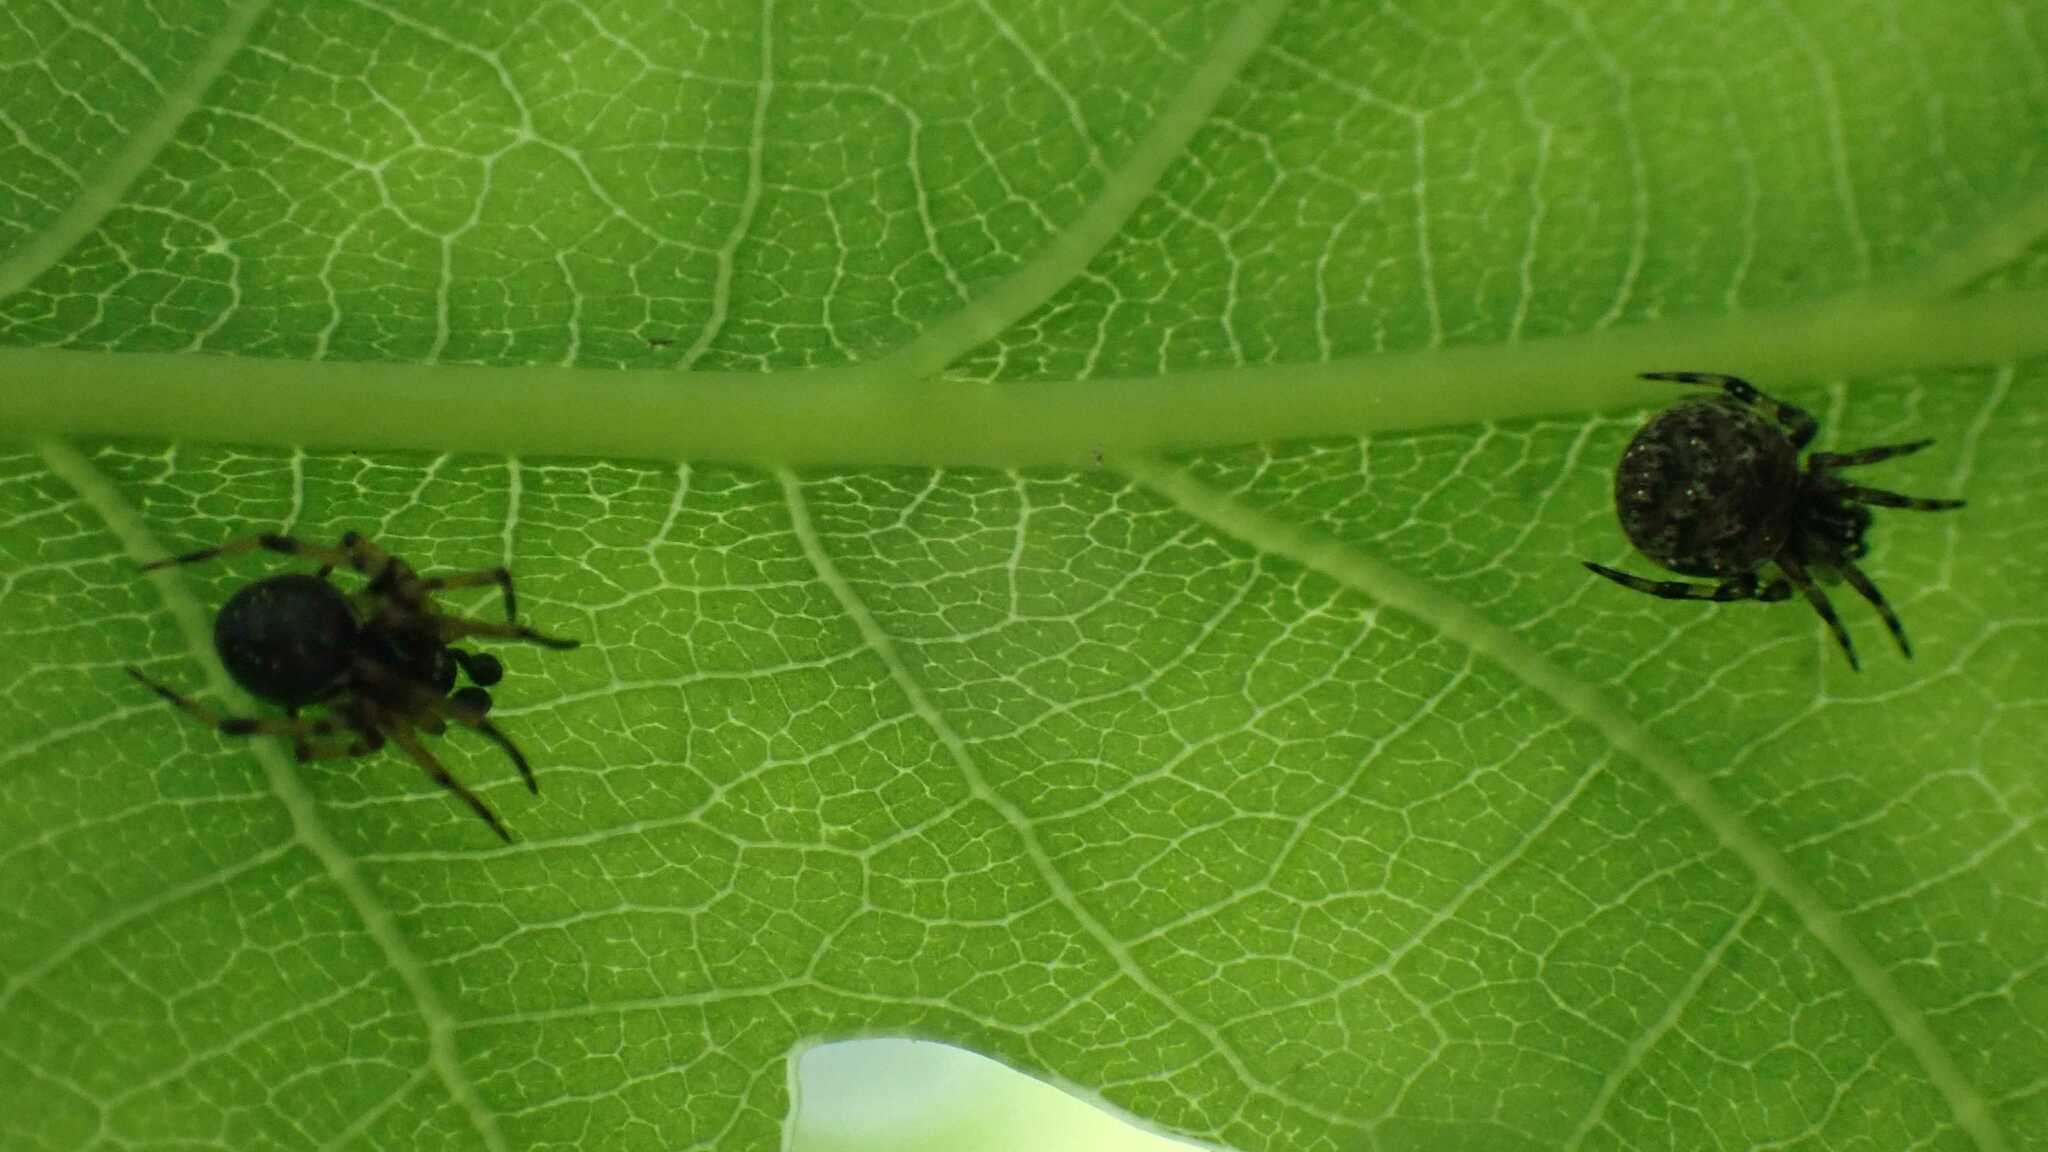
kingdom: Animalia
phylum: Arthropoda
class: Arachnida
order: Araneae
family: Theridiidae
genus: Dipoena
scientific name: Dipoena melanogaster
